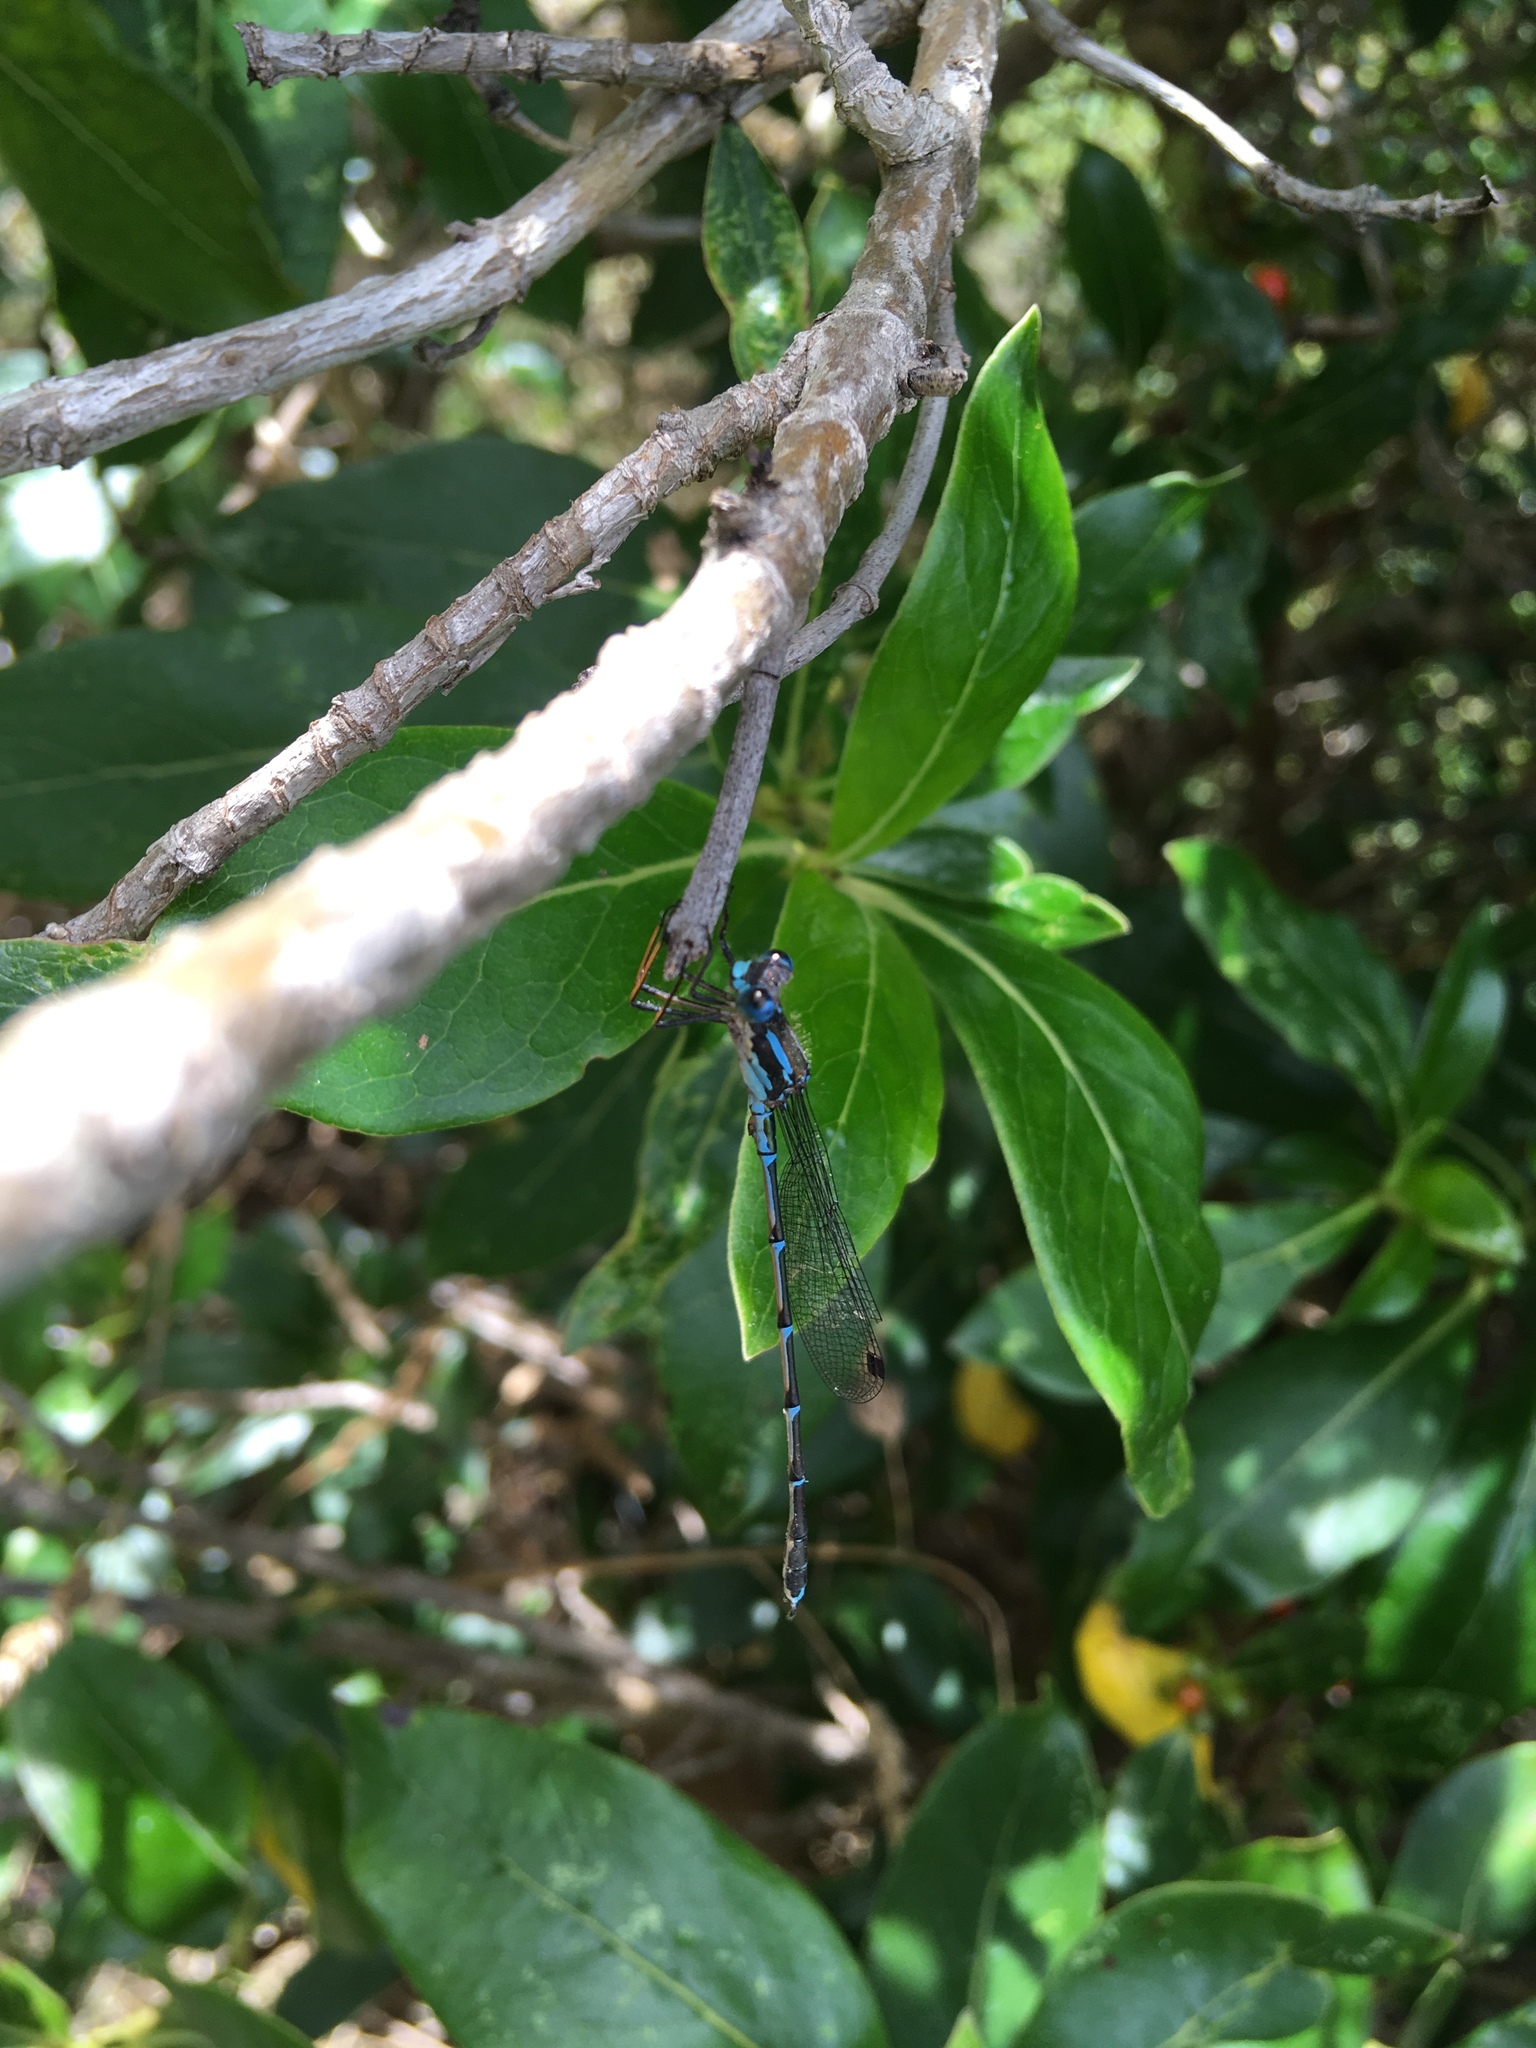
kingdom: Animalia
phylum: Arthropoda
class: Insecta
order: Odonata
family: Lestidae
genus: Austrolestes
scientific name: Austrolestes colensonis
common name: Blue damselfly
